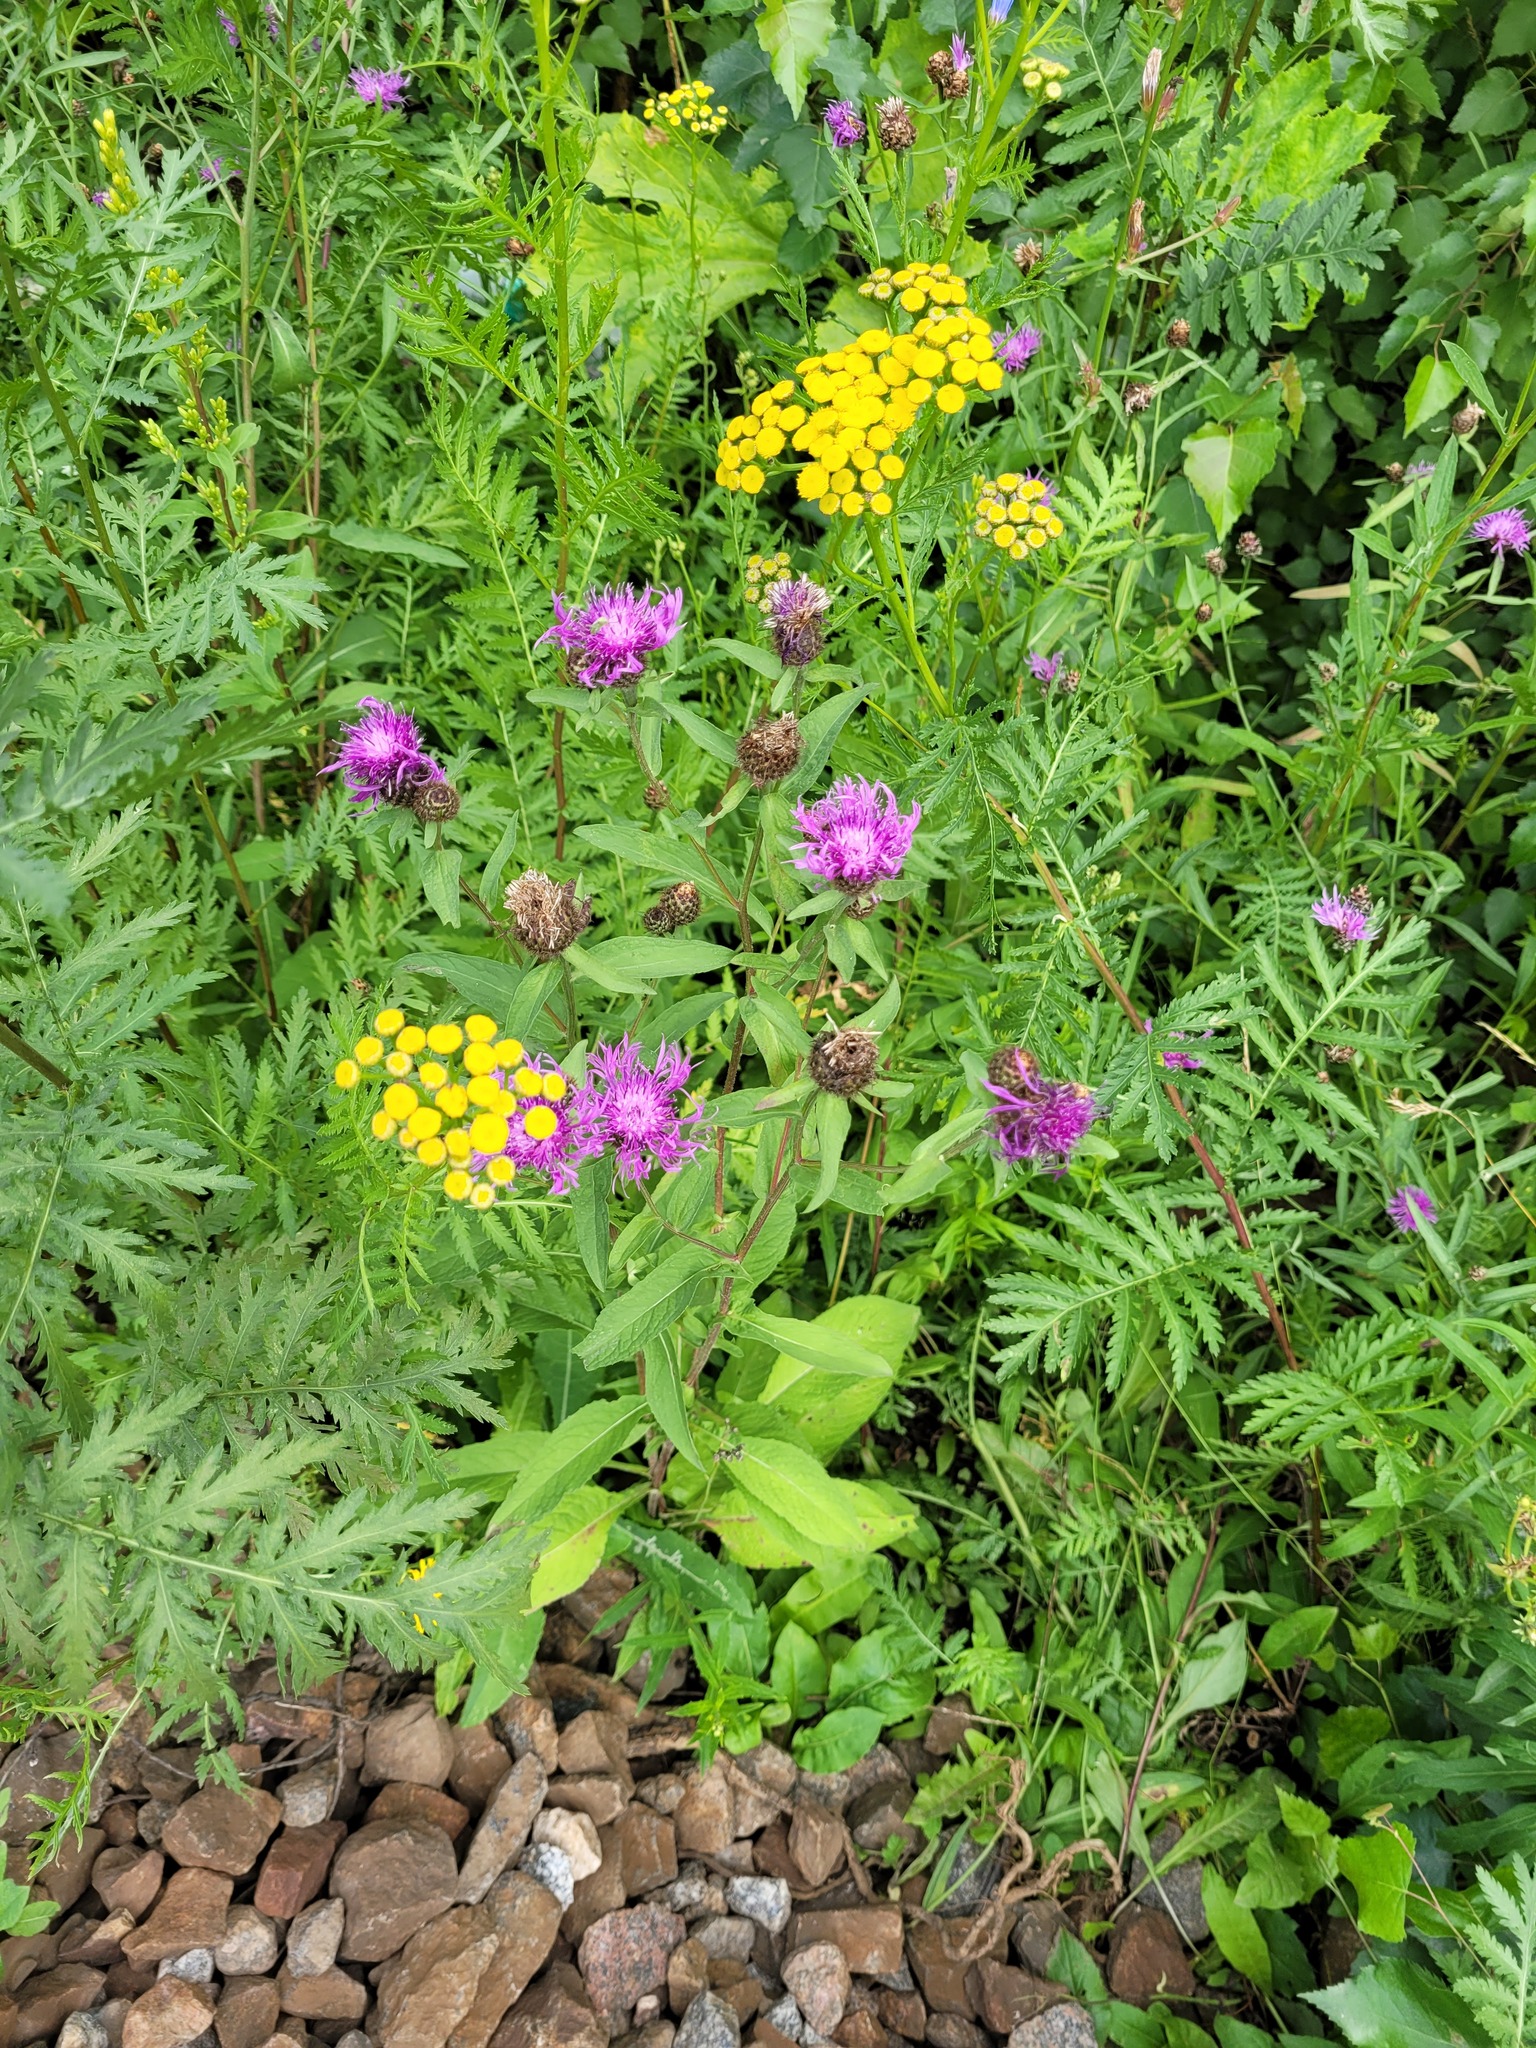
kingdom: Plantae
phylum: Tracheophyta
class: Magnoliopsida
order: Asterales
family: Asteraceae
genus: Centaurea
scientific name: Centaurea phrygia
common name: Wig knapweed
